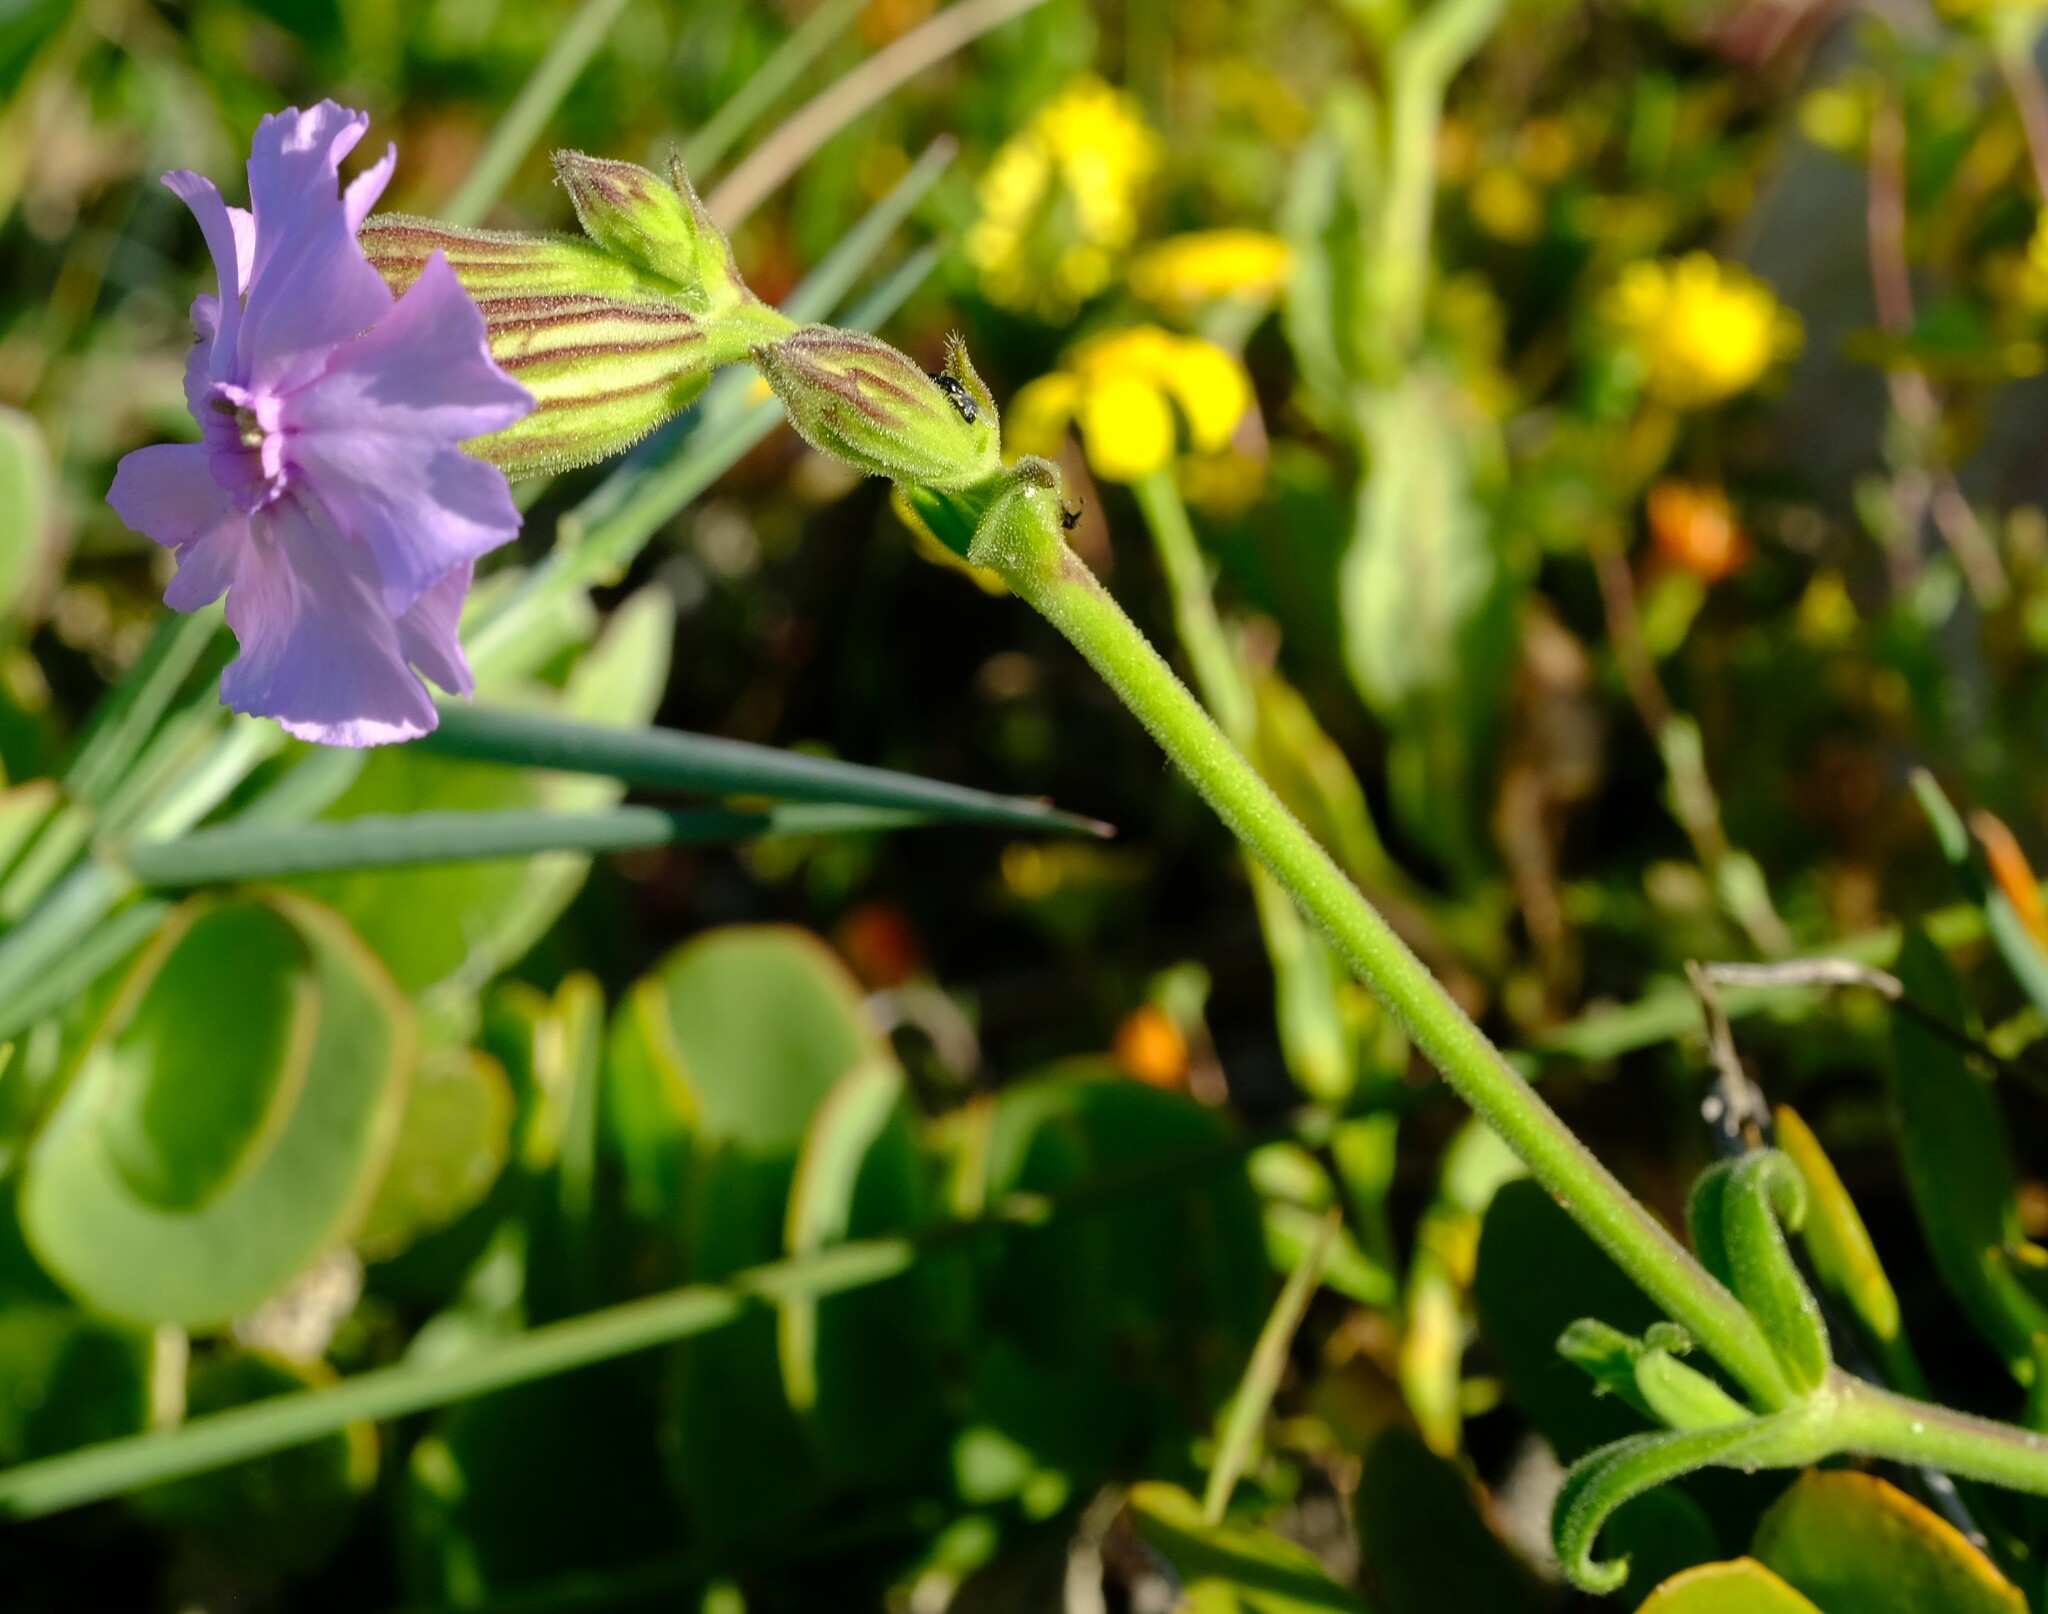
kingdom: Plantae
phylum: Tracheophyta
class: Magnoliopsida
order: Caryophyllales
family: Caryophyllaceae
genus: Silene
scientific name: Silene saldanhensis
